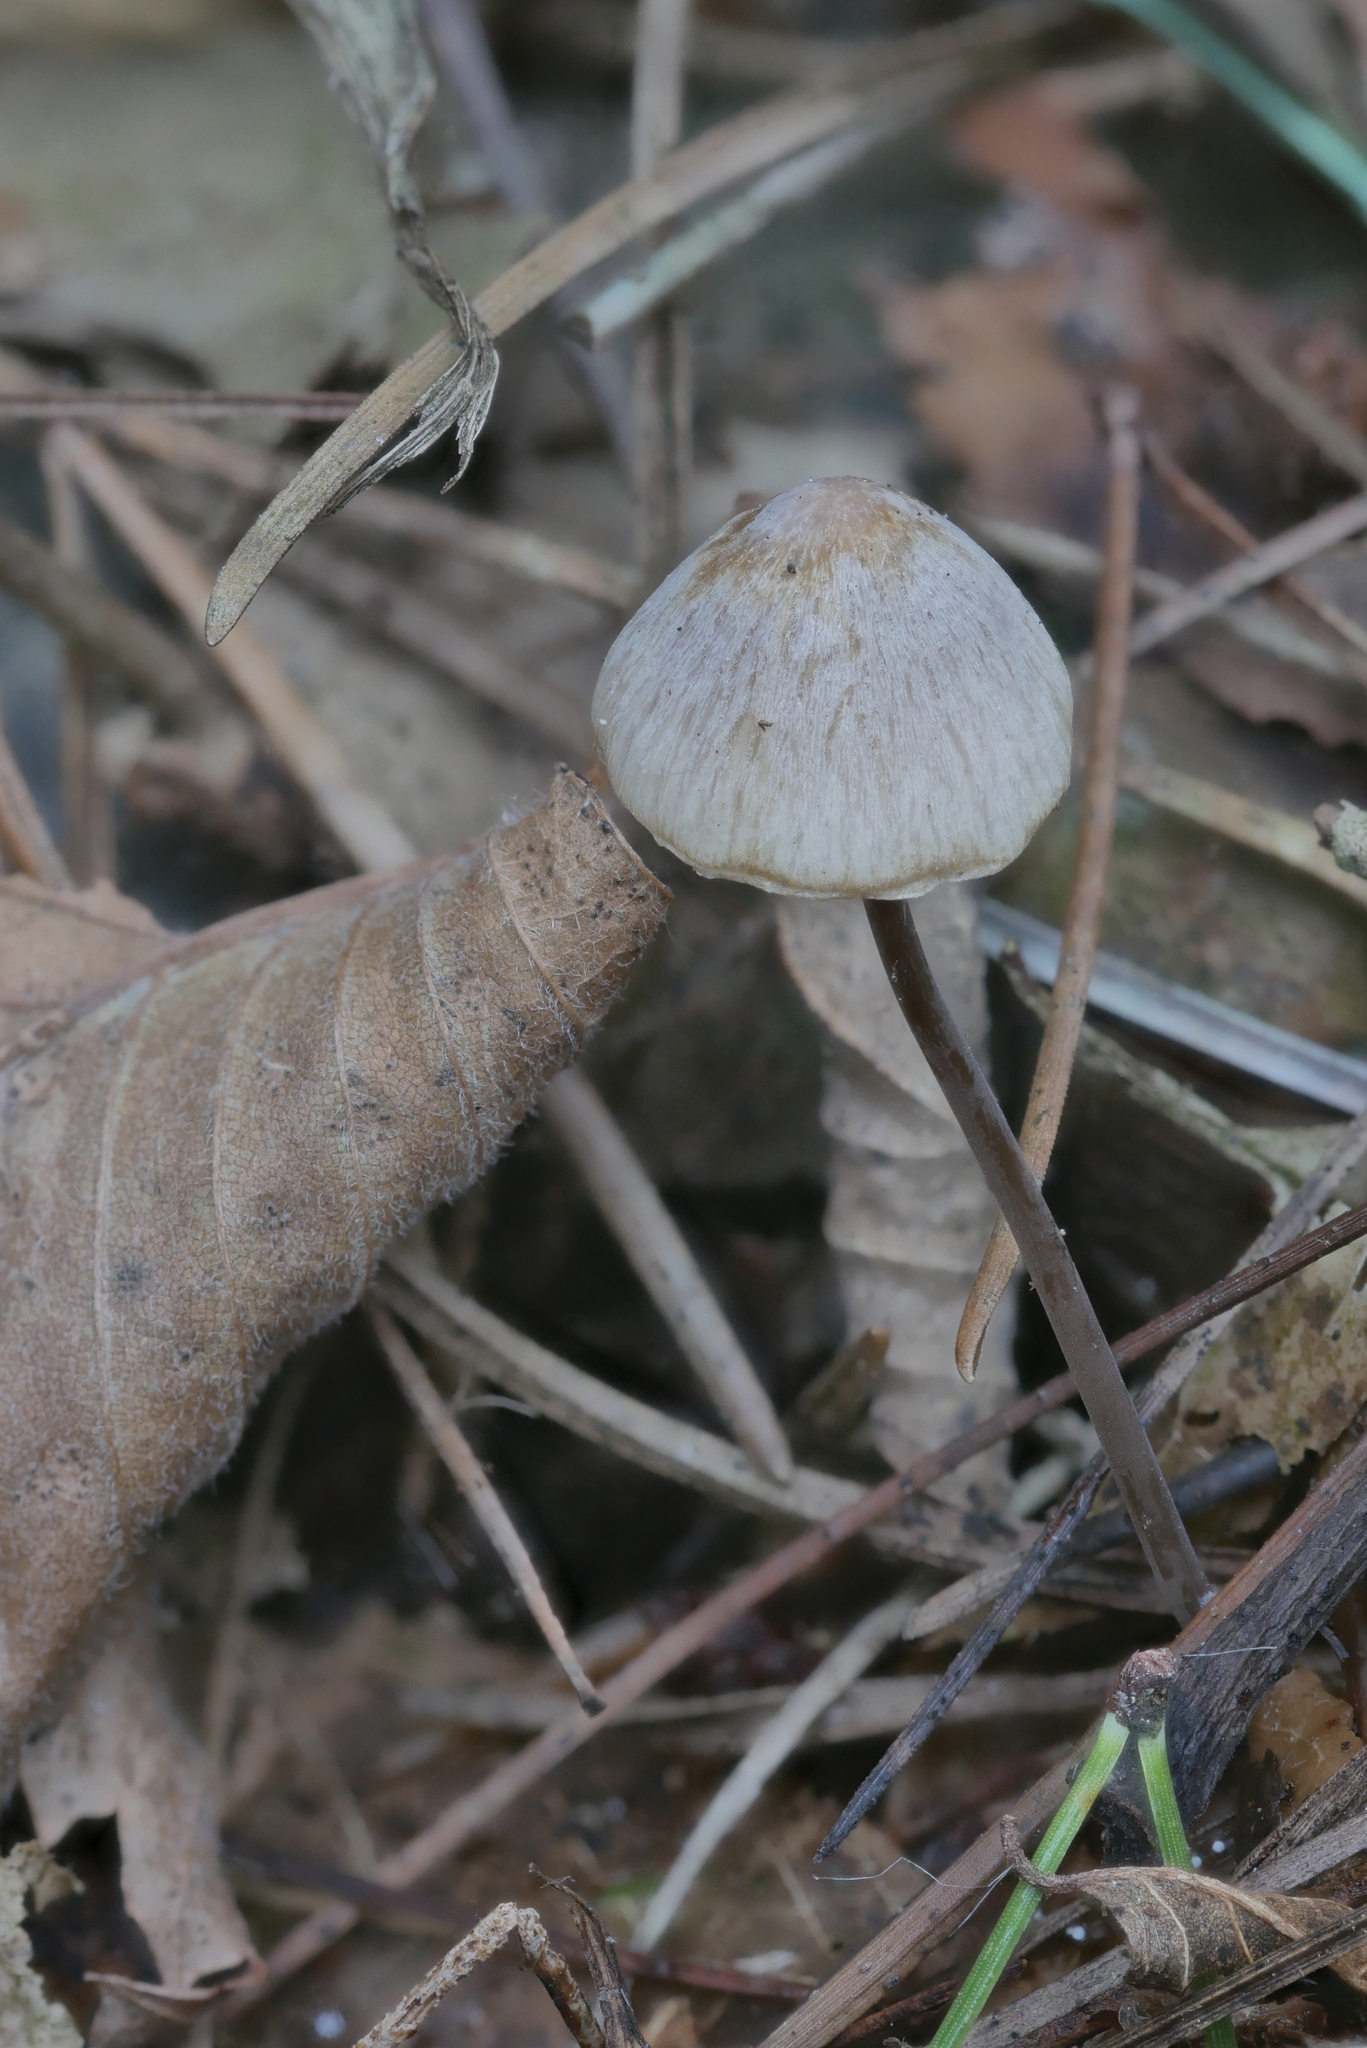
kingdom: Fungi
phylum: Basidiomycota
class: Agaricomycetes
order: Agaricales
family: Mycenaceae
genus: Mycena
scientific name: Mycena filopes
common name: Iodine bonnet
